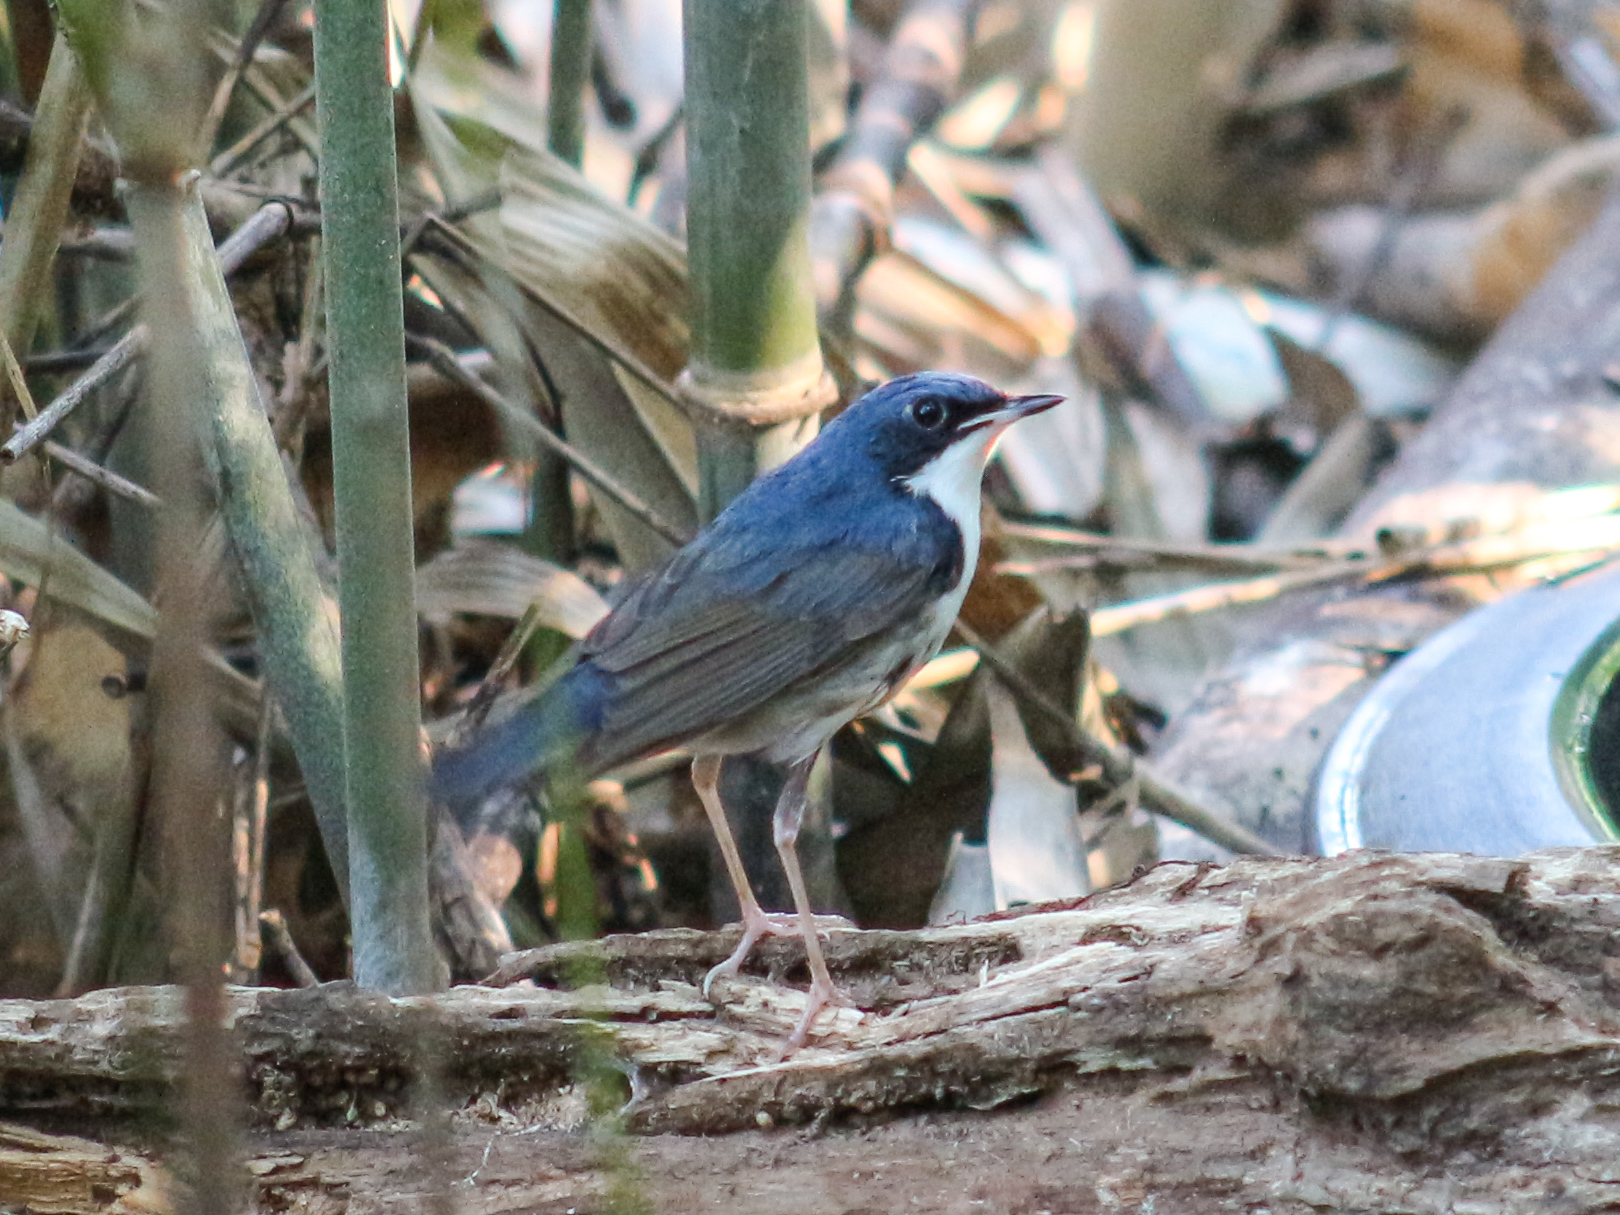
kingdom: Animalia
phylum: Chordata
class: Aves
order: Passeriformes
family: Muscicapidae
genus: Luscinia
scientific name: Luscinia cyane
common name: Siberian blue robin
